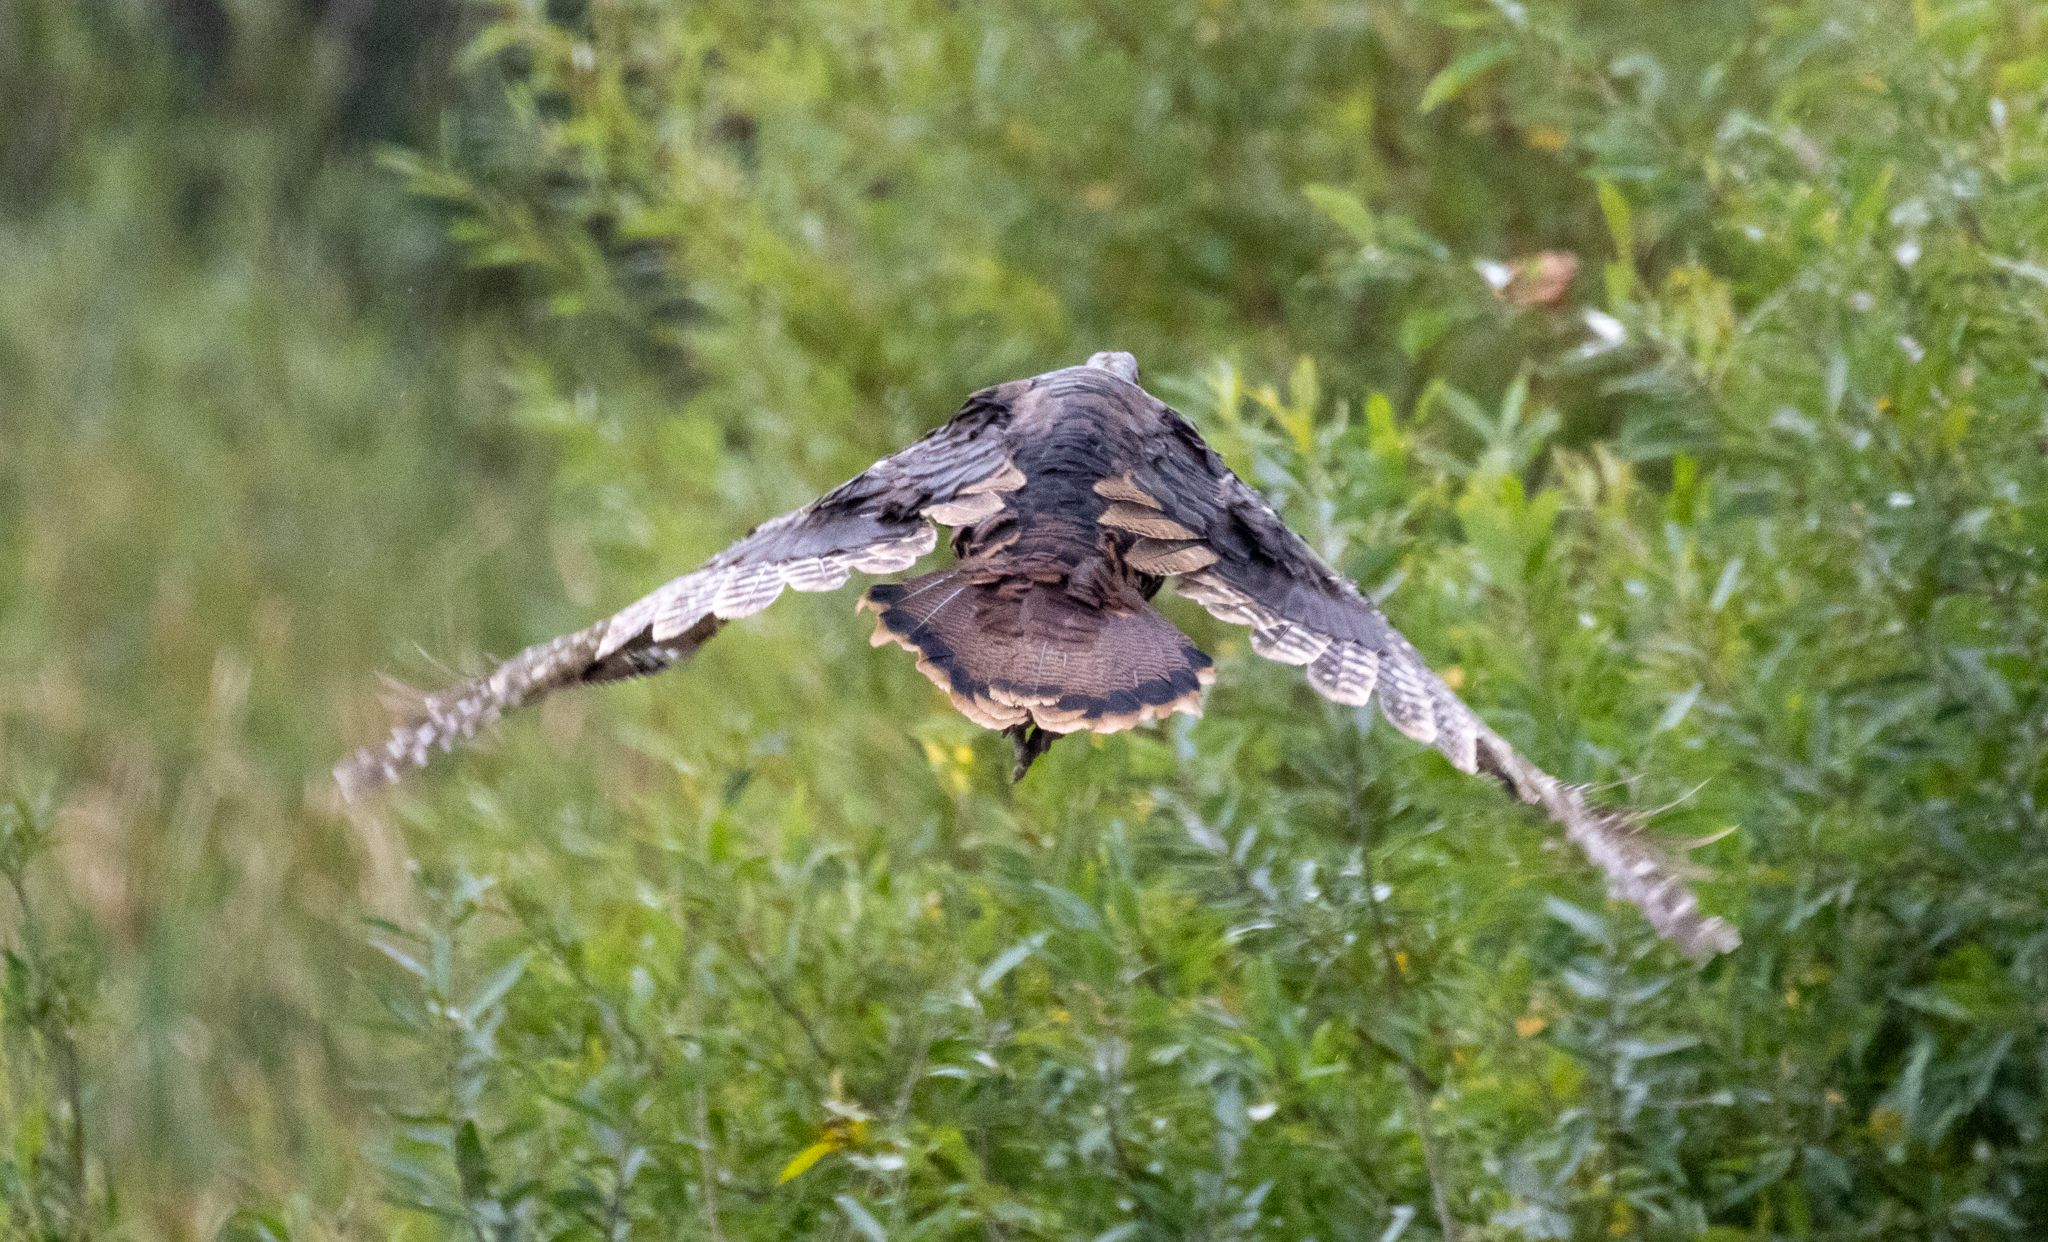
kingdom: Animalia
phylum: Chordata
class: Aves
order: Galliformes
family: Phasianidae
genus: Meleagris
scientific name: Meleagris gallopavo
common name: Wild turkey
